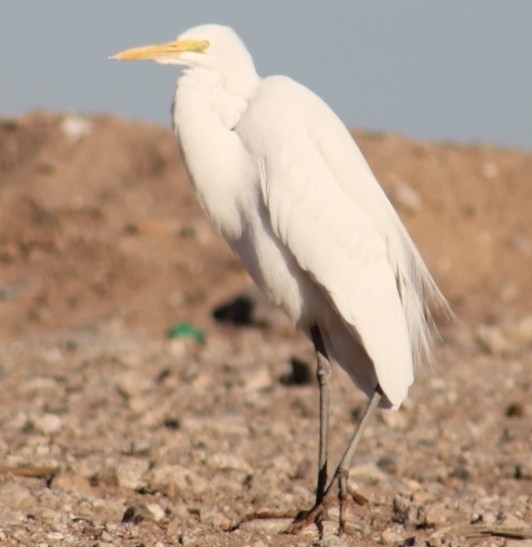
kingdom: Animalia
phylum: Chordata
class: Aves
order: Pelecaniformes
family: Ardeidae
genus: Ardea
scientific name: Ardea alba
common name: Great egret
